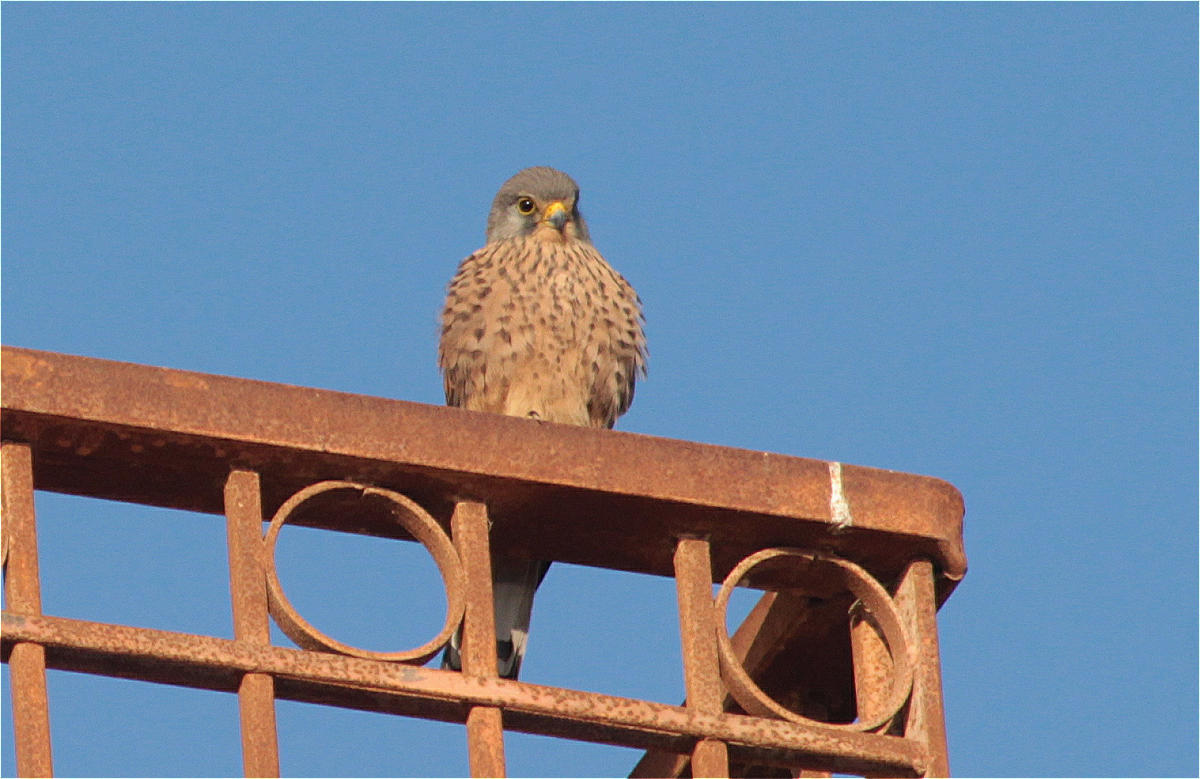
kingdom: Animalia
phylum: Chordata
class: Aves
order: Falconiformes
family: Falconidae
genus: Falco
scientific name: Falco tinnunculus
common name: Common kestrel
